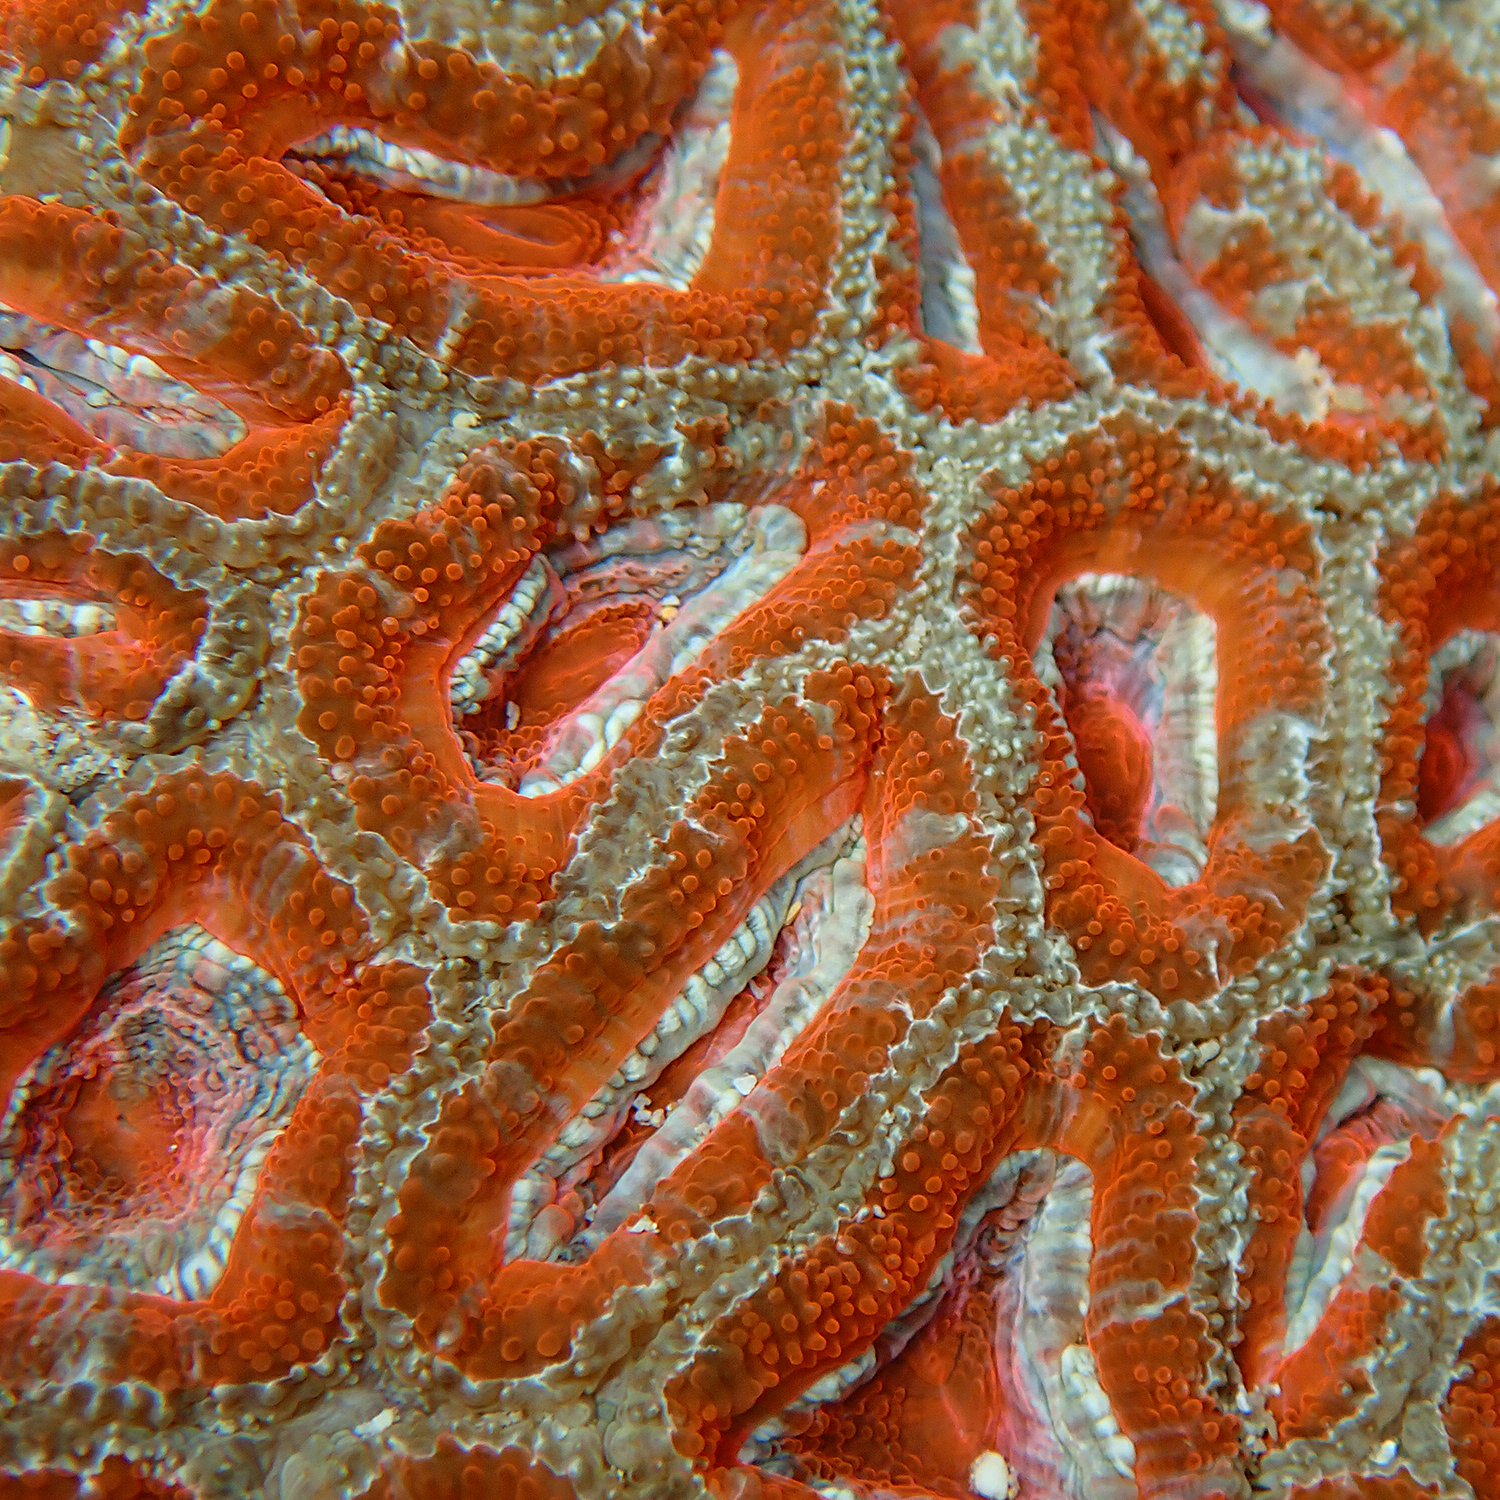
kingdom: Animalia
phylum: Cnidaria
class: Anthozoa
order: Scleractinia
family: Lobophylliidae
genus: Micromussa
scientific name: Micromussa lordhowensis
